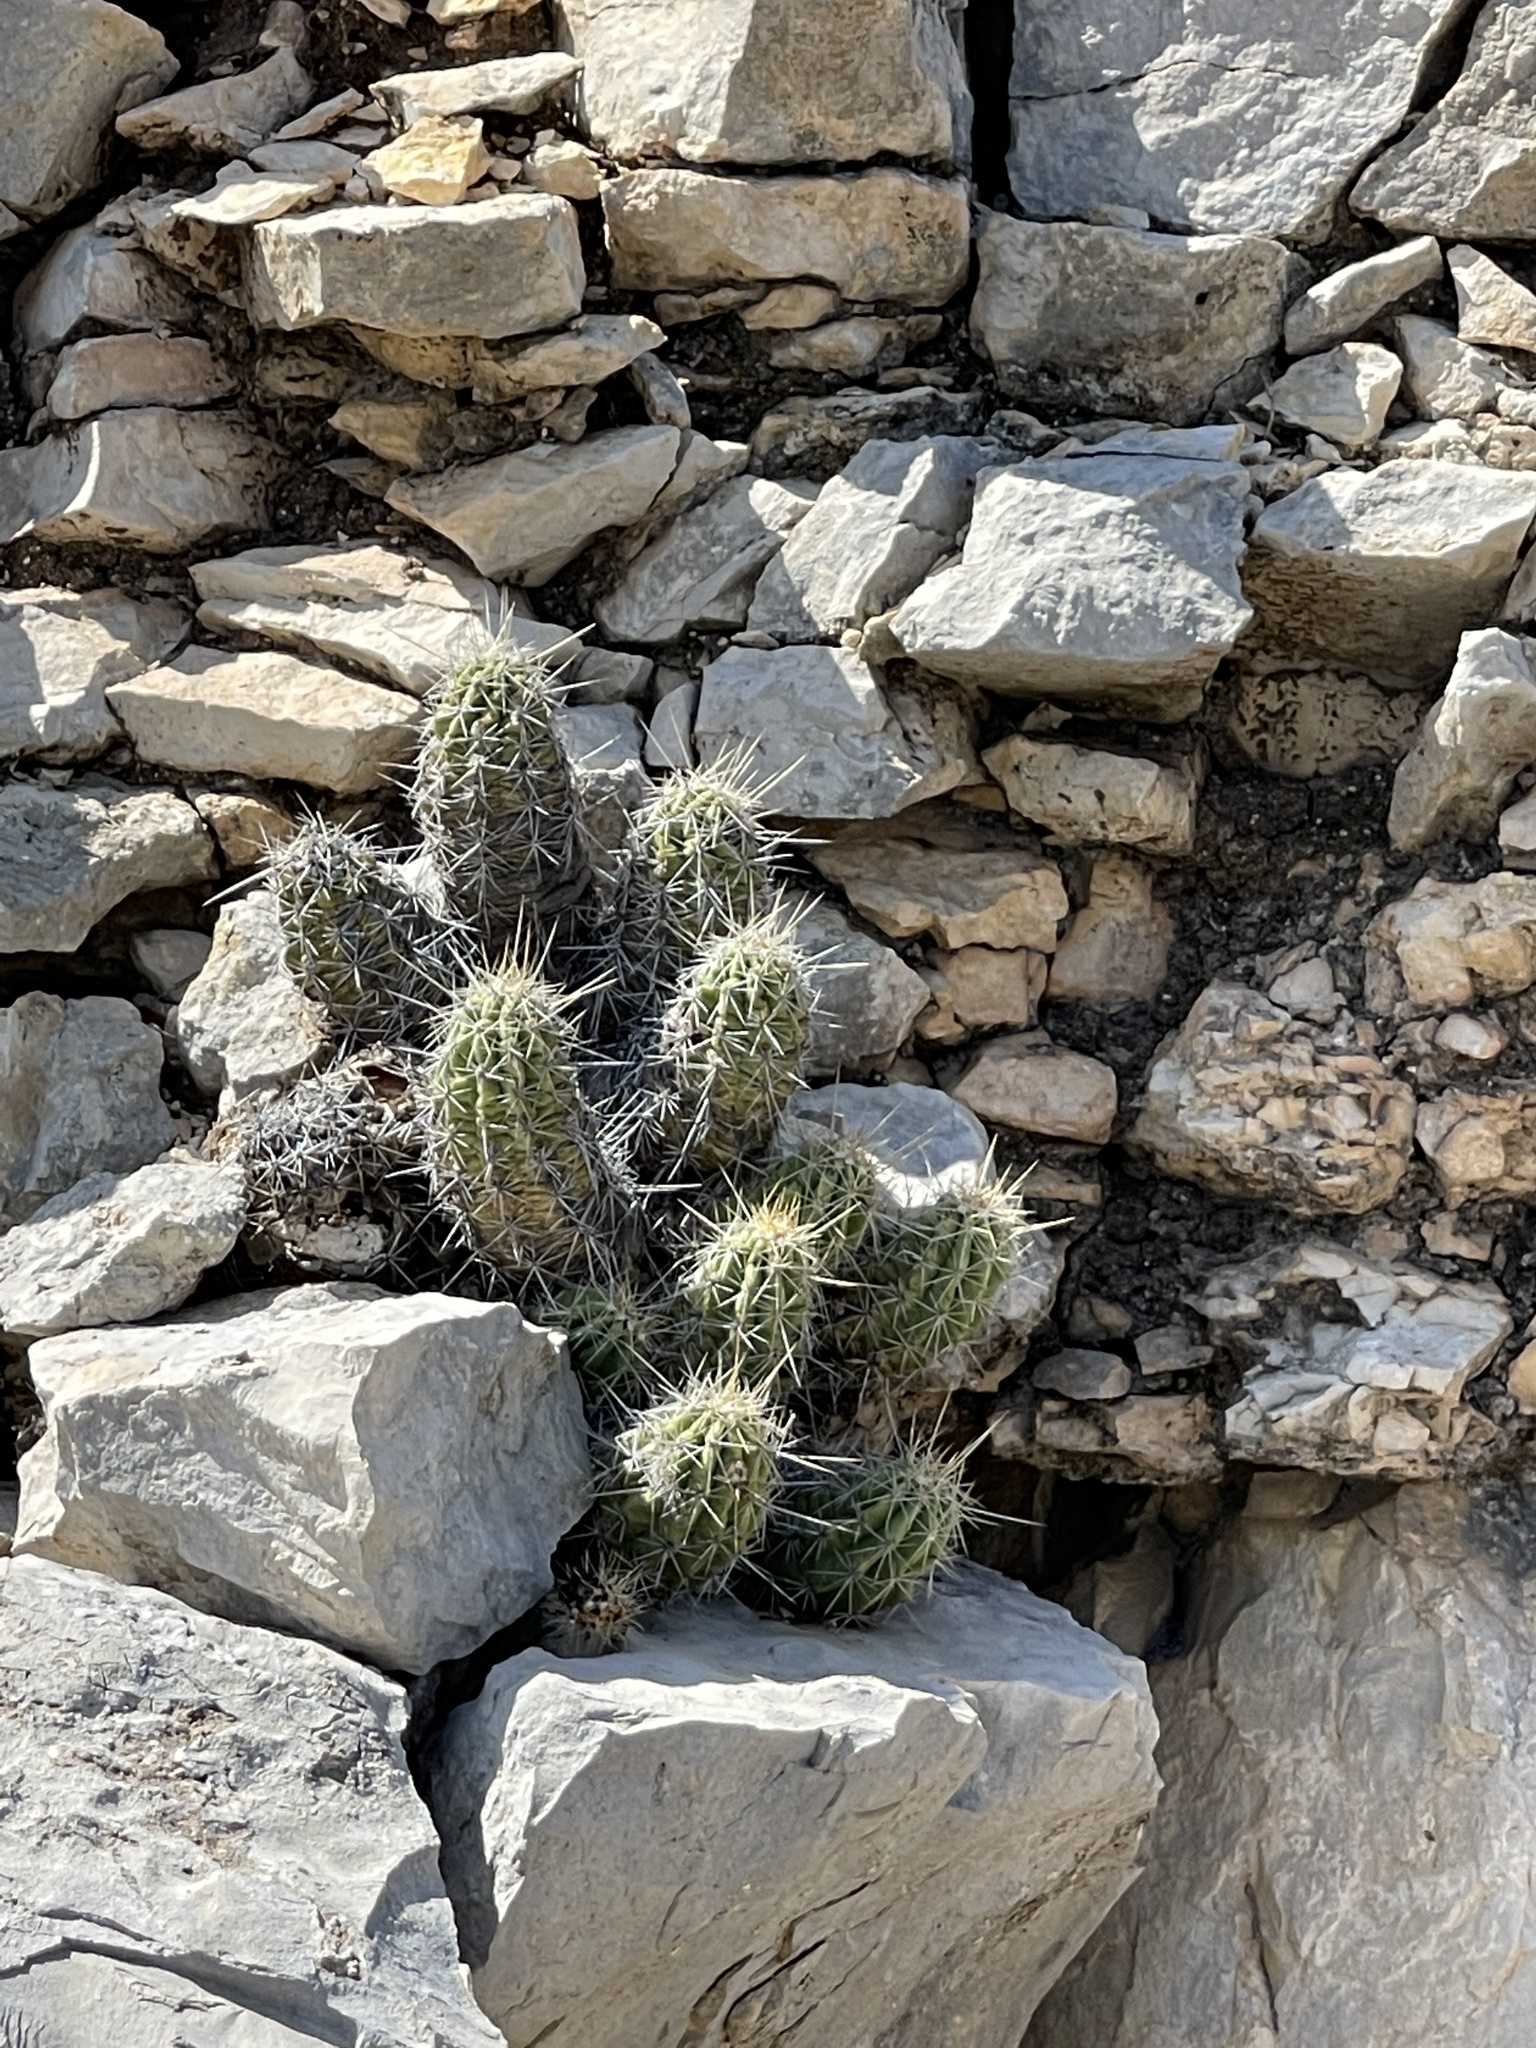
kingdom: Plantae
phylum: Tracheophyta
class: Magnoliopsida
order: Caryophyllales
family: Cactaceae
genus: Echinocereus
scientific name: Echinocereus enneacanthus
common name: Pitaya
